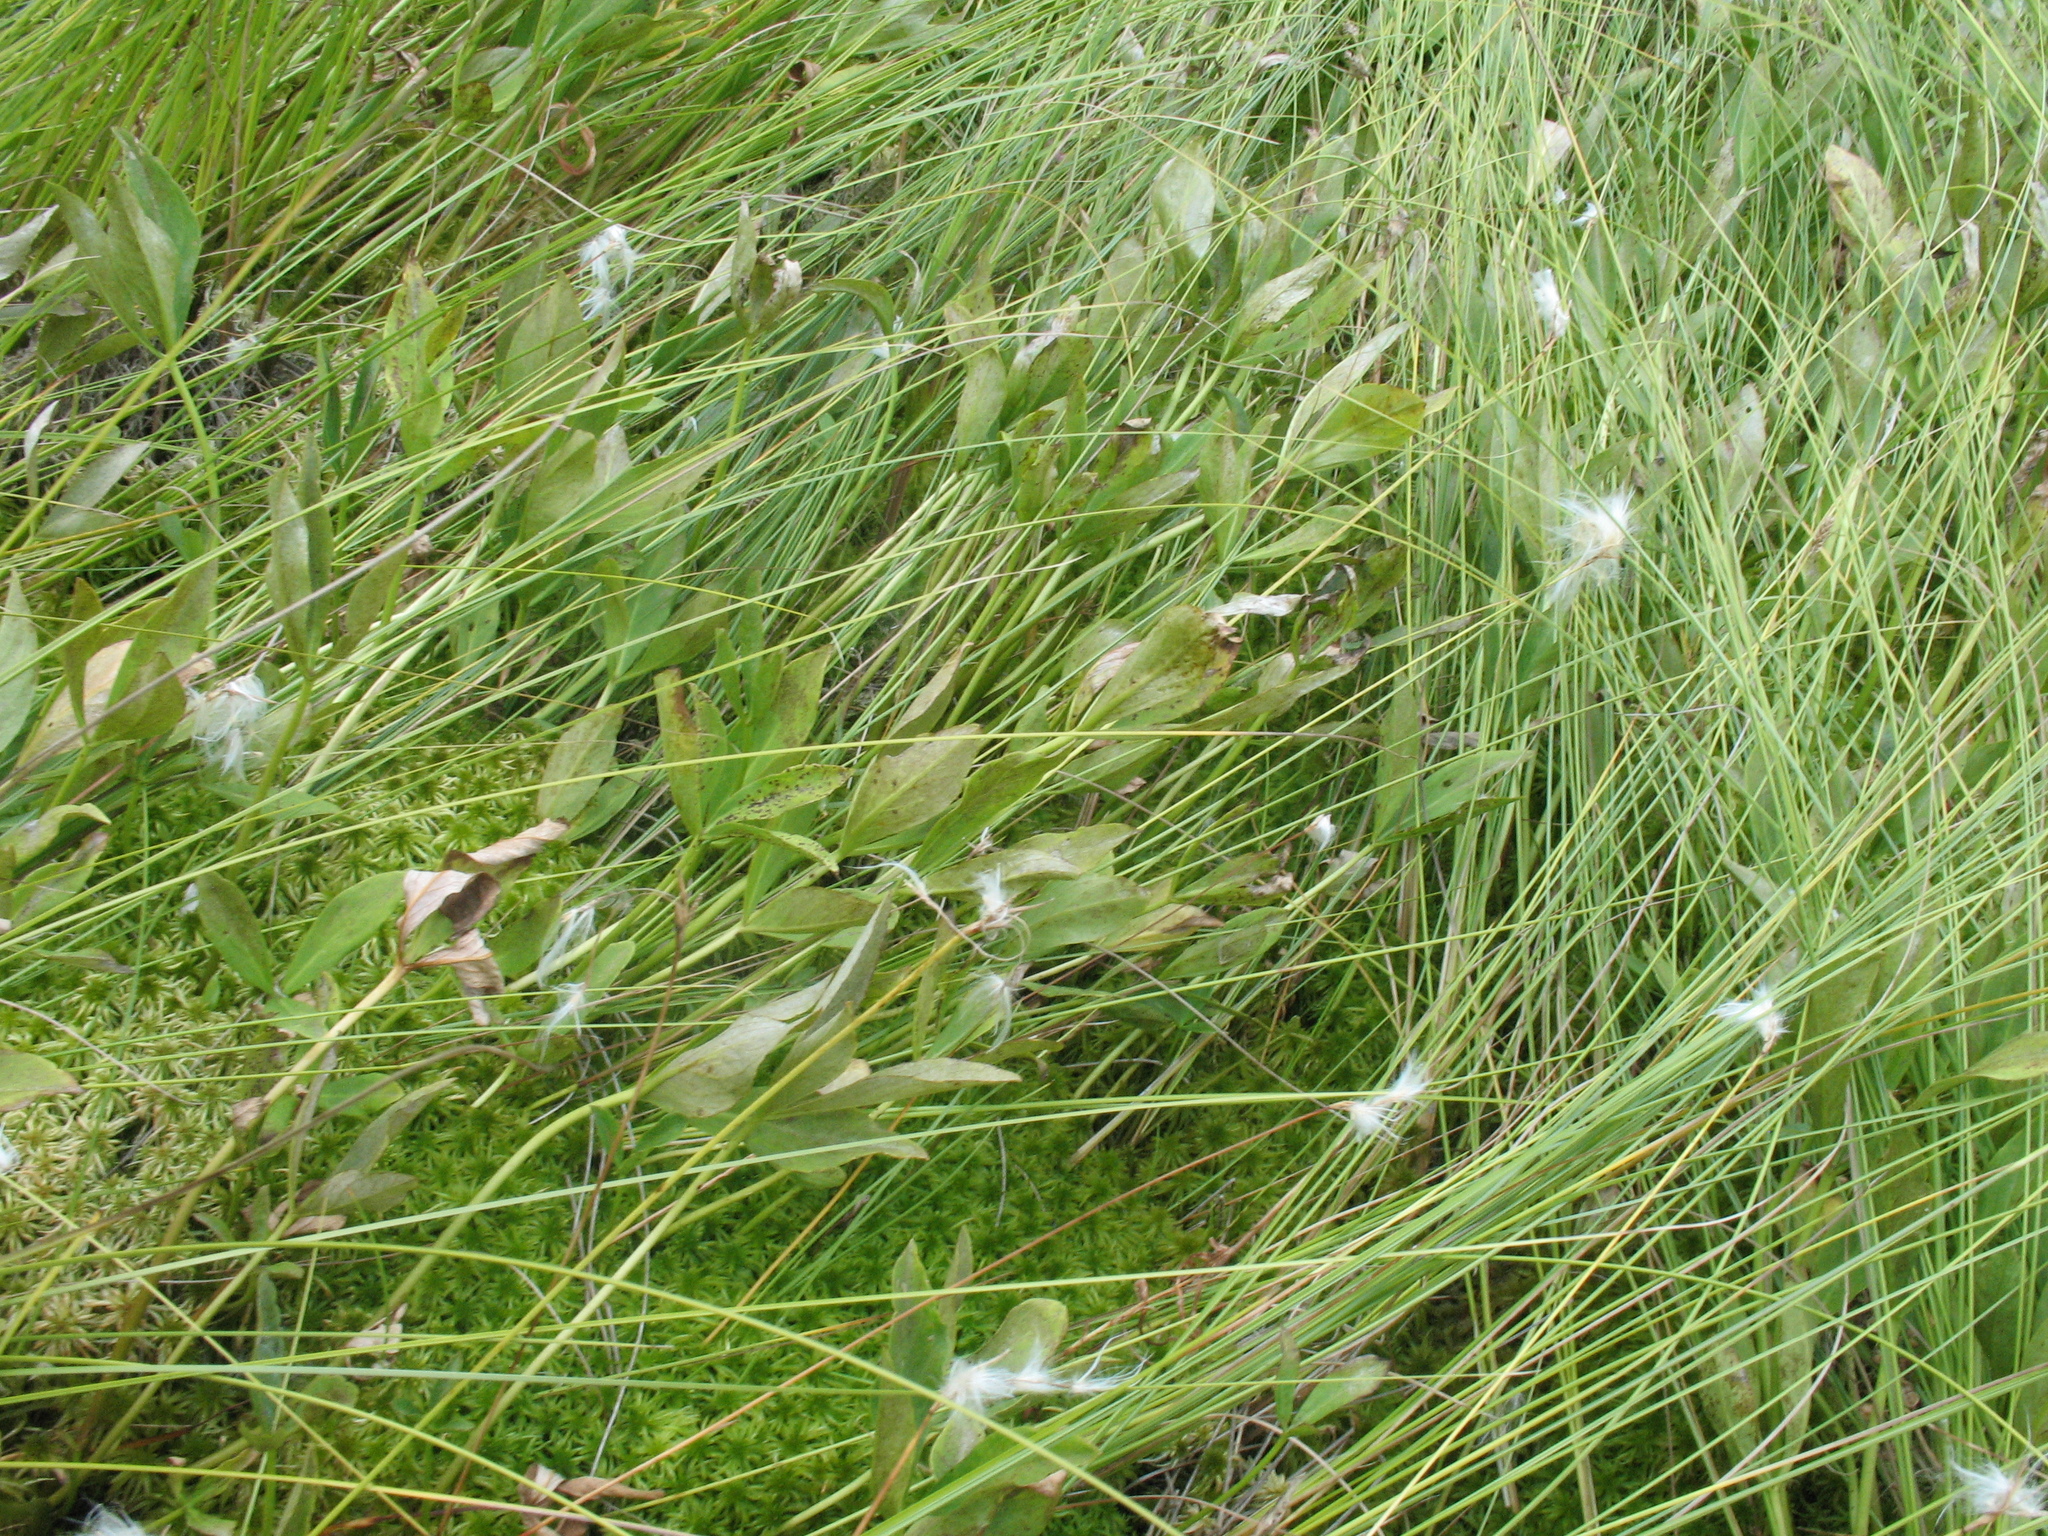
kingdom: Plantae
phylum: Tracheophyta
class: Liliopsida
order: Poales
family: Cyperaceae
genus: Eriophorum
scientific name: Eriophorum gracile
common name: Slender cottongrass
